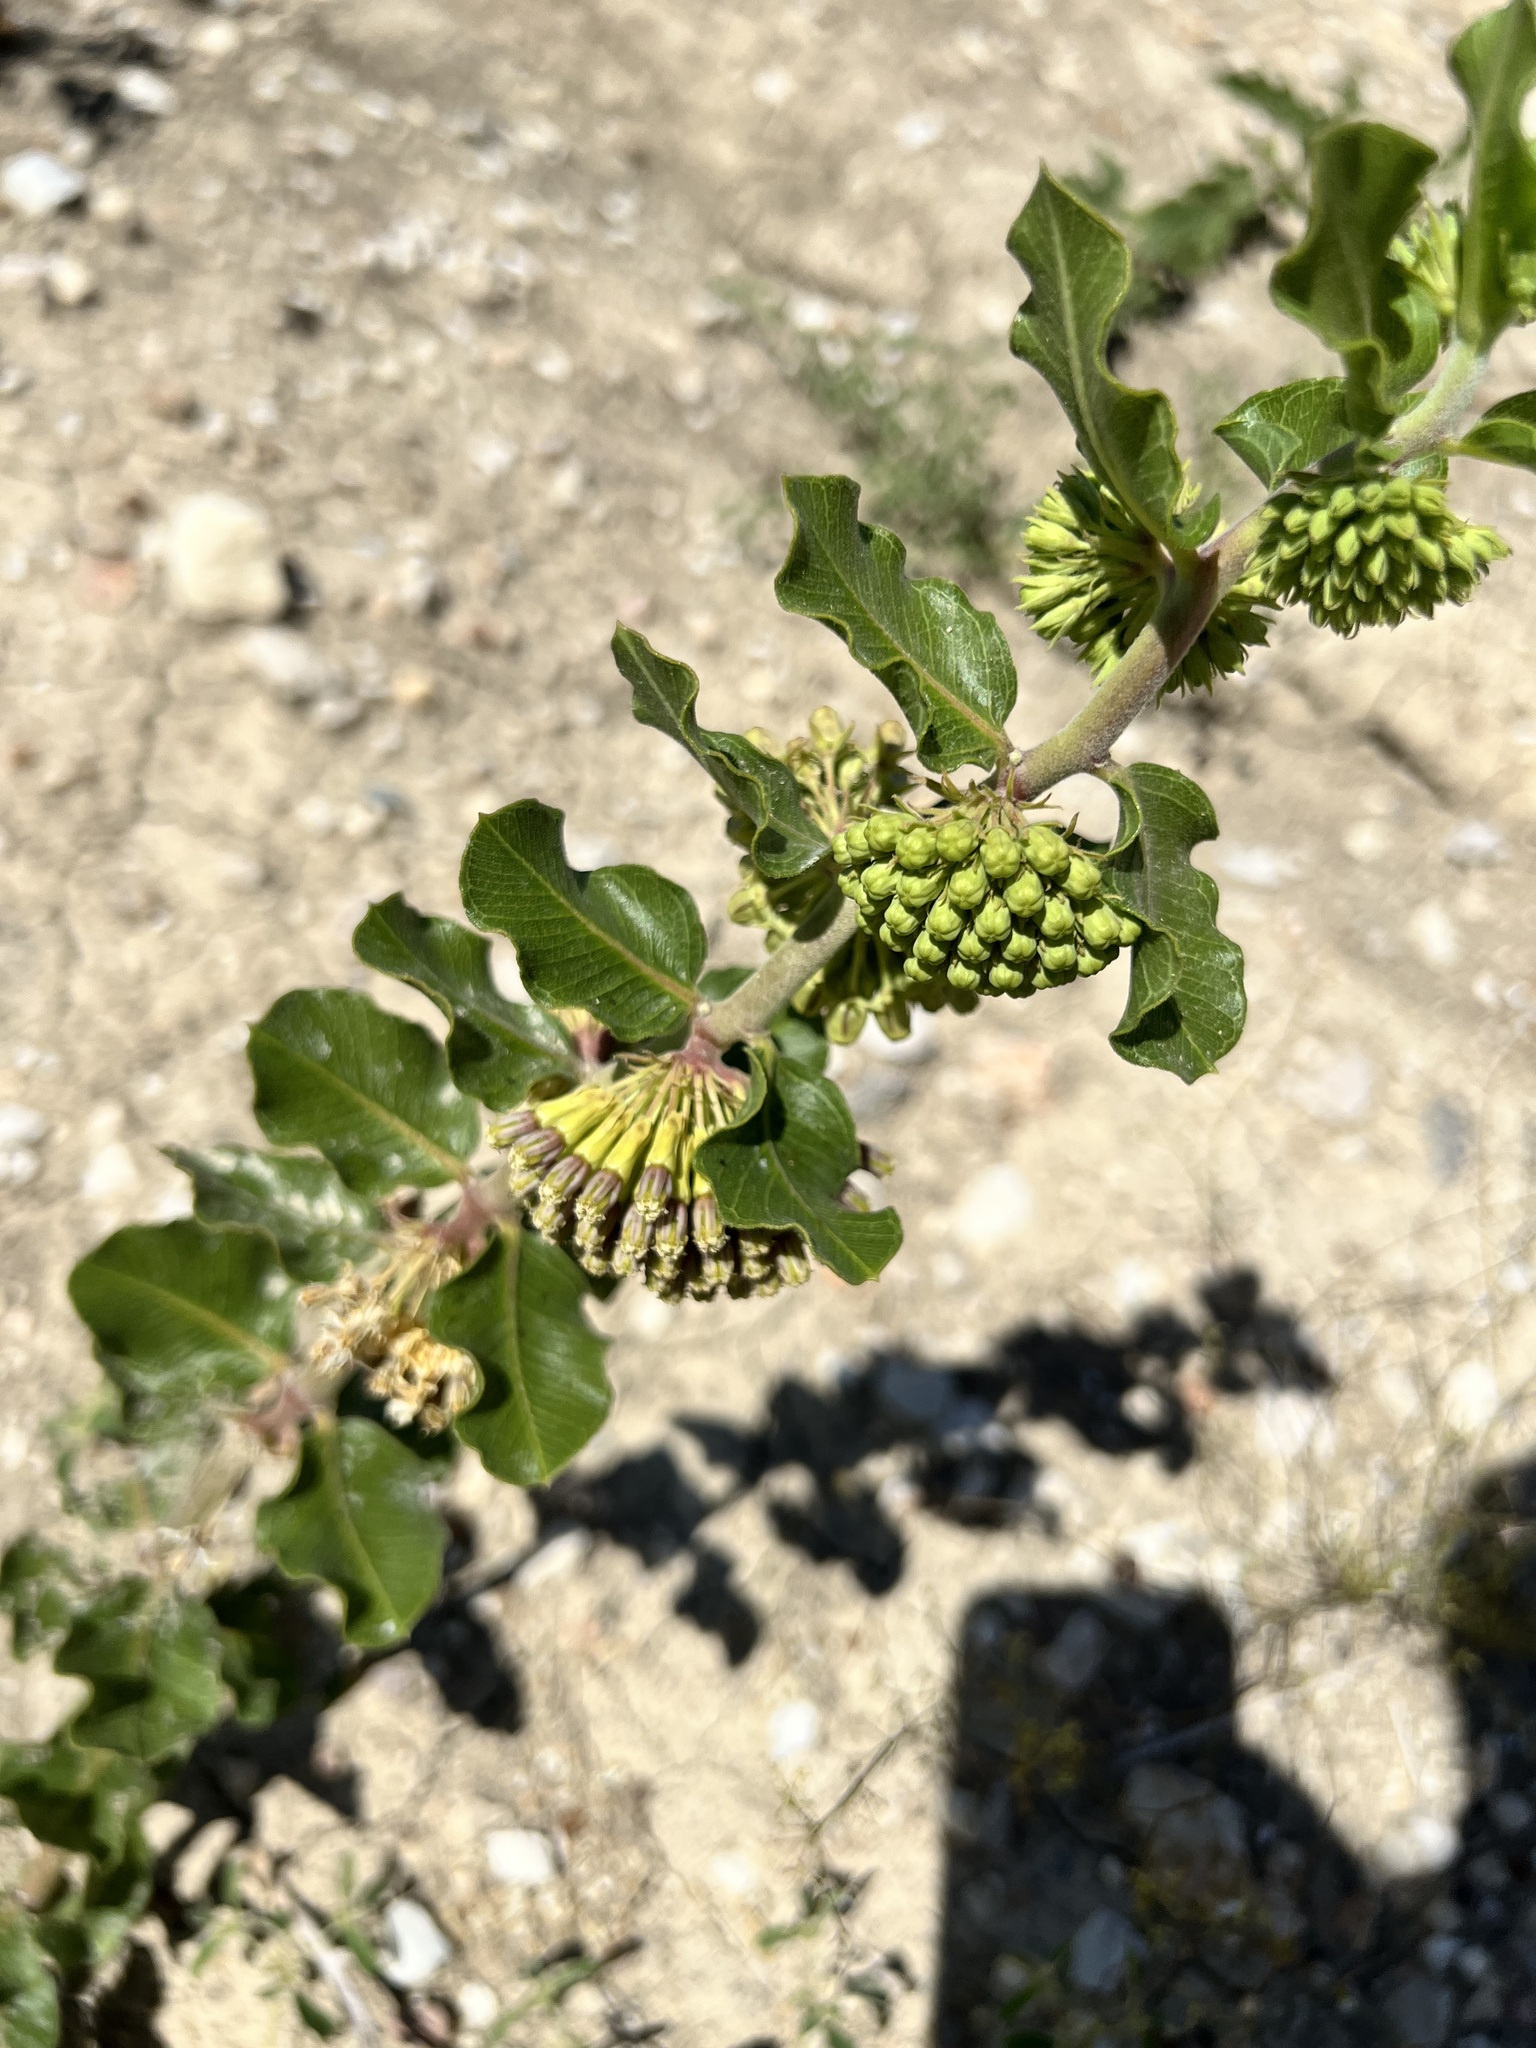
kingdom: Plantae
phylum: Tracheophyta
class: Magnoliopsida
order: Gentianales
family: Apocynaceae
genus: Asclepias
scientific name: Asclepias viridiflora
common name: Green comet milkweed
